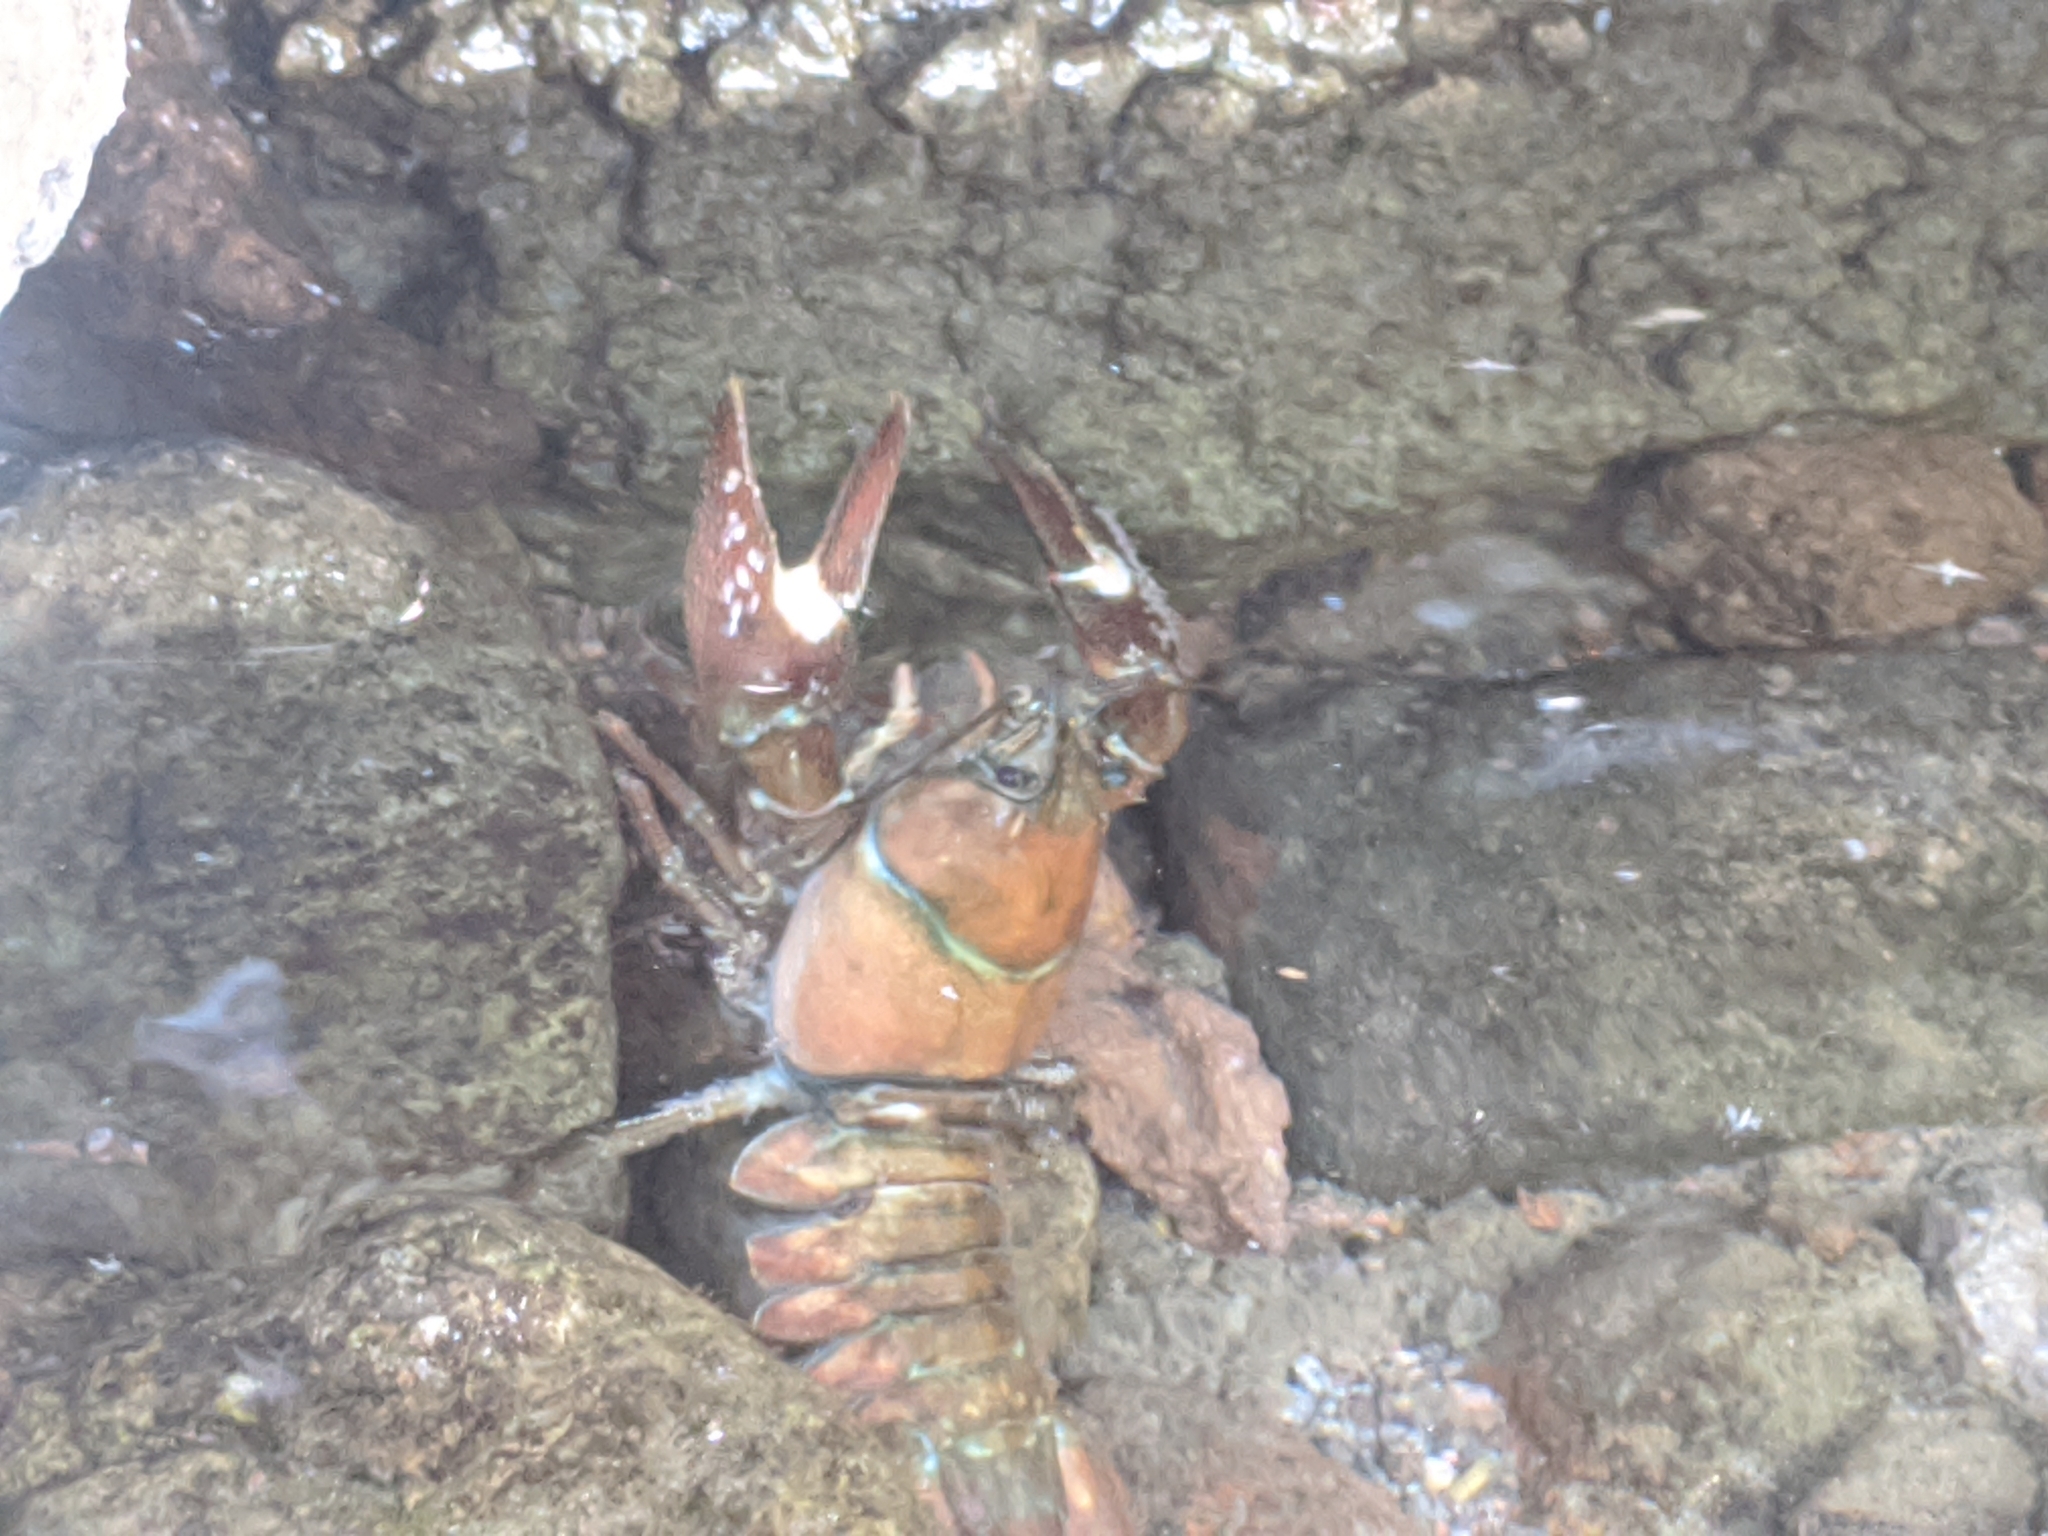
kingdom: Animalia
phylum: Arthropoda
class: Malacostraca
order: Decapoda
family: Astacidae
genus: Pacifastacus
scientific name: Pacifastacus leniusculus
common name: Signal crayfish
